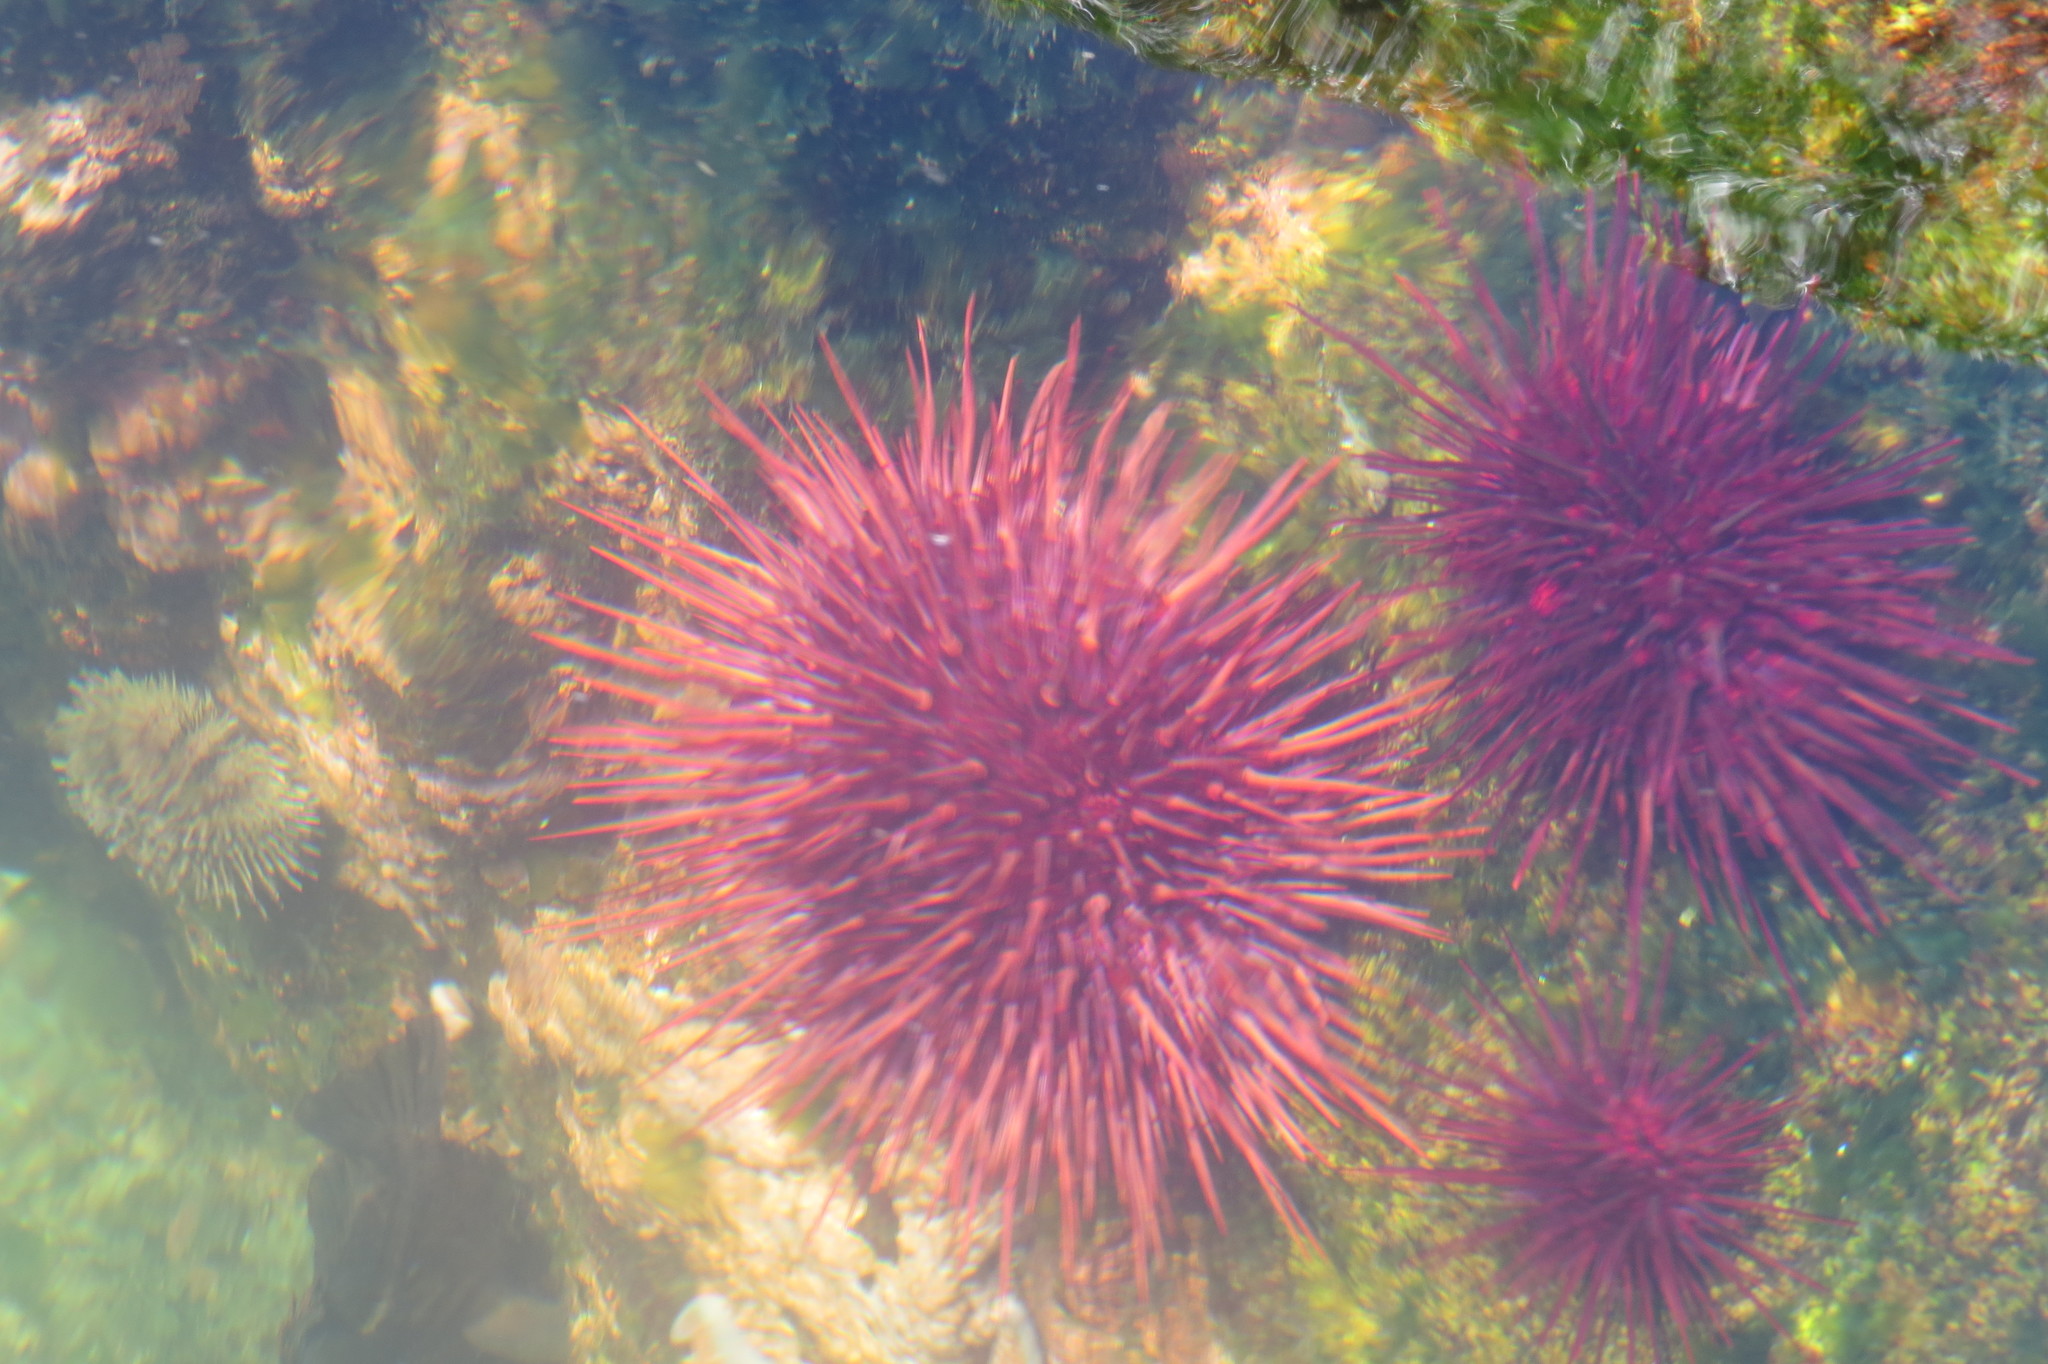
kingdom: Animalia
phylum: Echinodermata
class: Echinoidea
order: Camarodonta
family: Strongylocentrotidae
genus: Mesocentrotus
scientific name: Mesocentrotus franciscanus
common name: Red sea urchin
